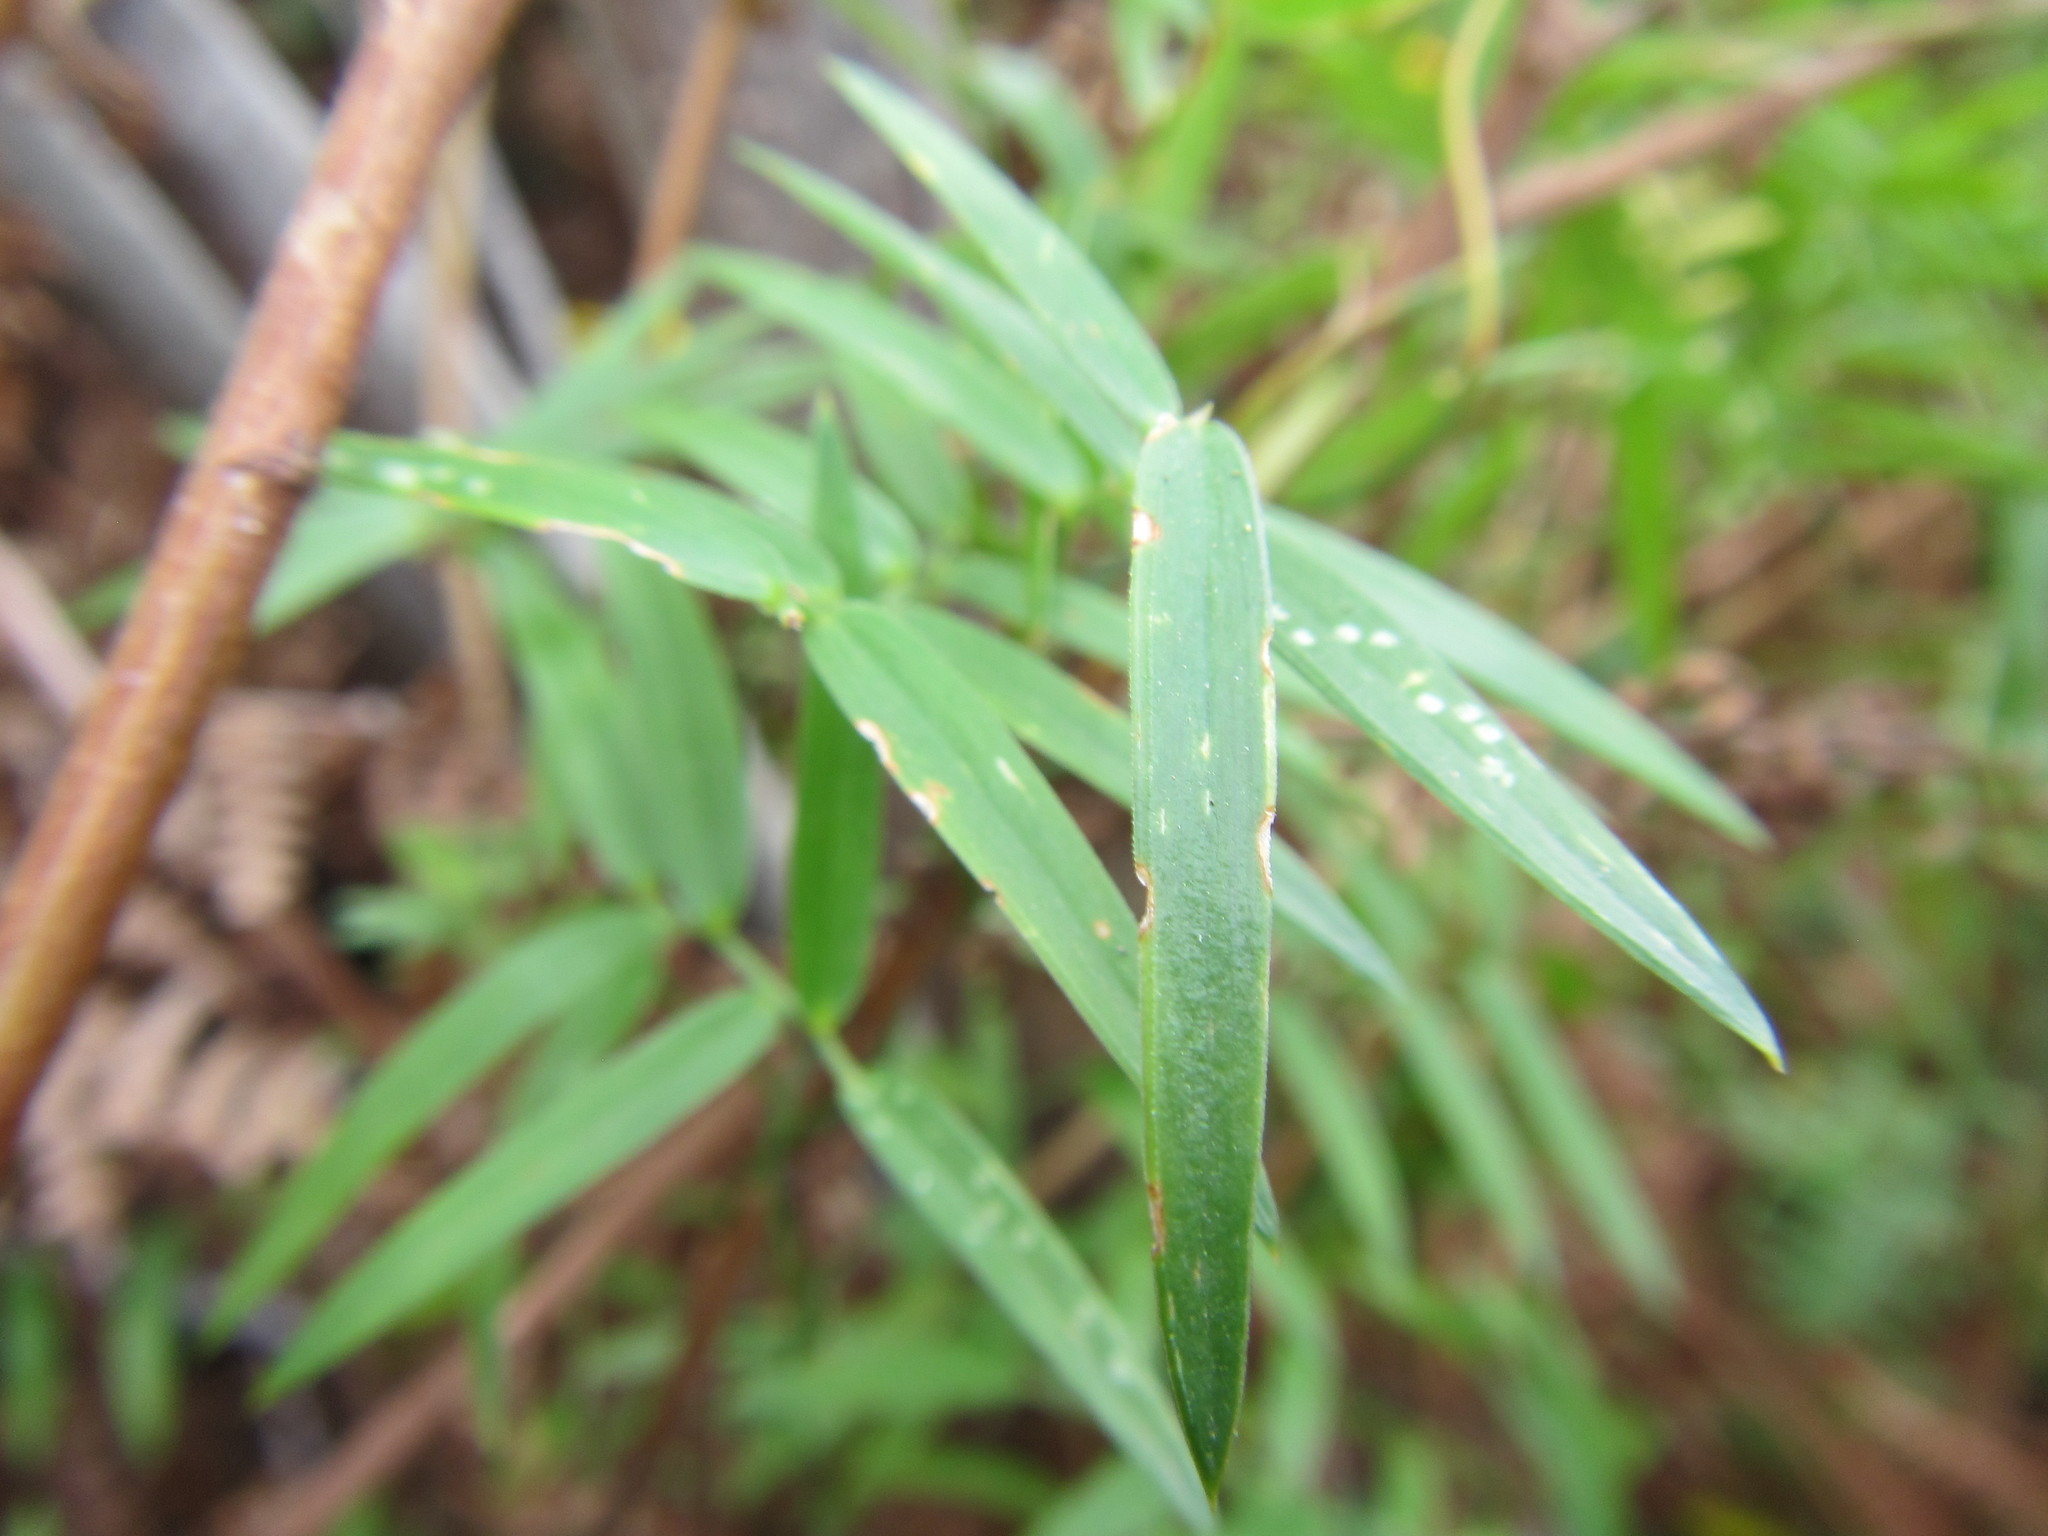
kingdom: Plantae
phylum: Tracheophyta
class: Liliopsida
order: Asparagales
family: Asparagaceae
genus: Asparagus
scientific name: Asparagus kraussianus
